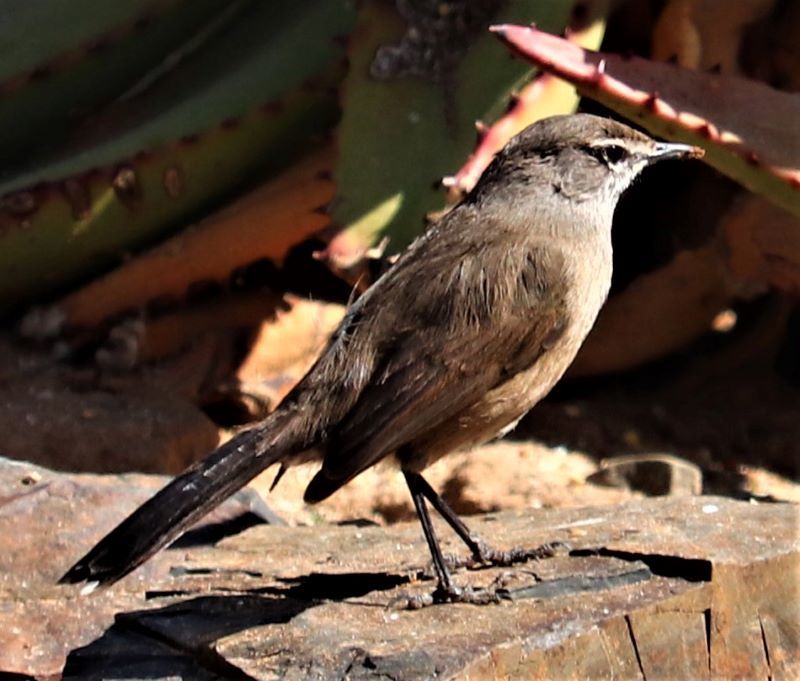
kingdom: Animalia
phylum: Chordata
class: Aves
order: Passeriformes
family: Muscicapidae
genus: Erythropygia
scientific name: Erythropygia coryphoeus
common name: Karoo scrub robin
